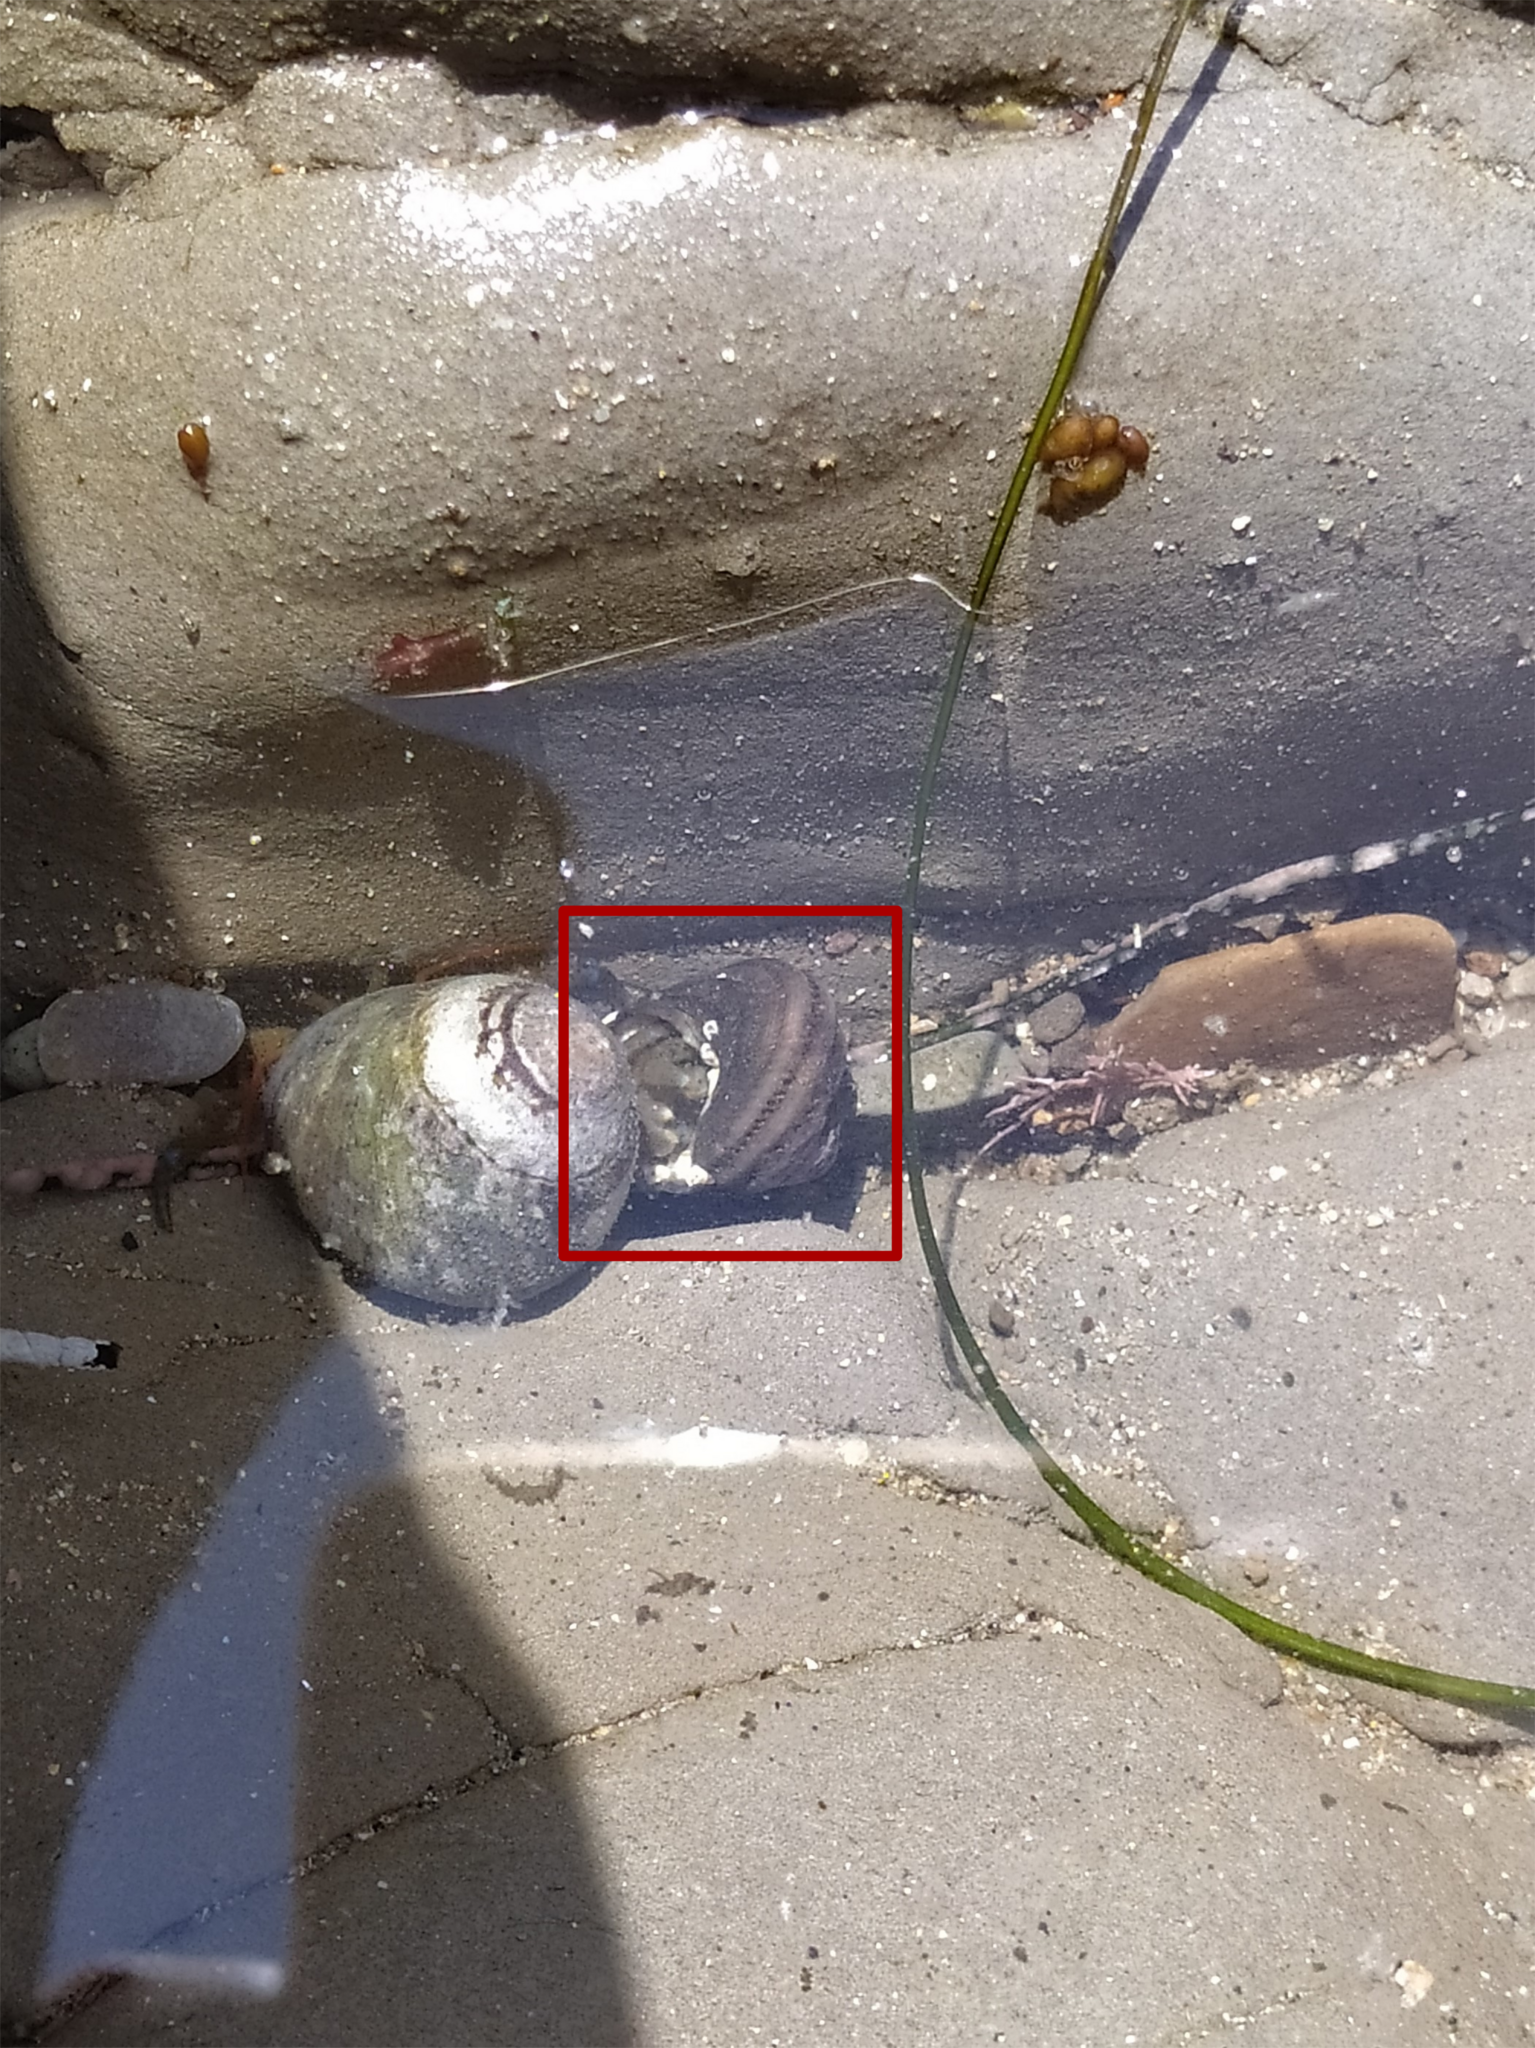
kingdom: Animalia
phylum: Mollusca
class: Gastropoda
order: Trochida
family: Tegulidae
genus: Tegula
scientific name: Tegula aureotincta
